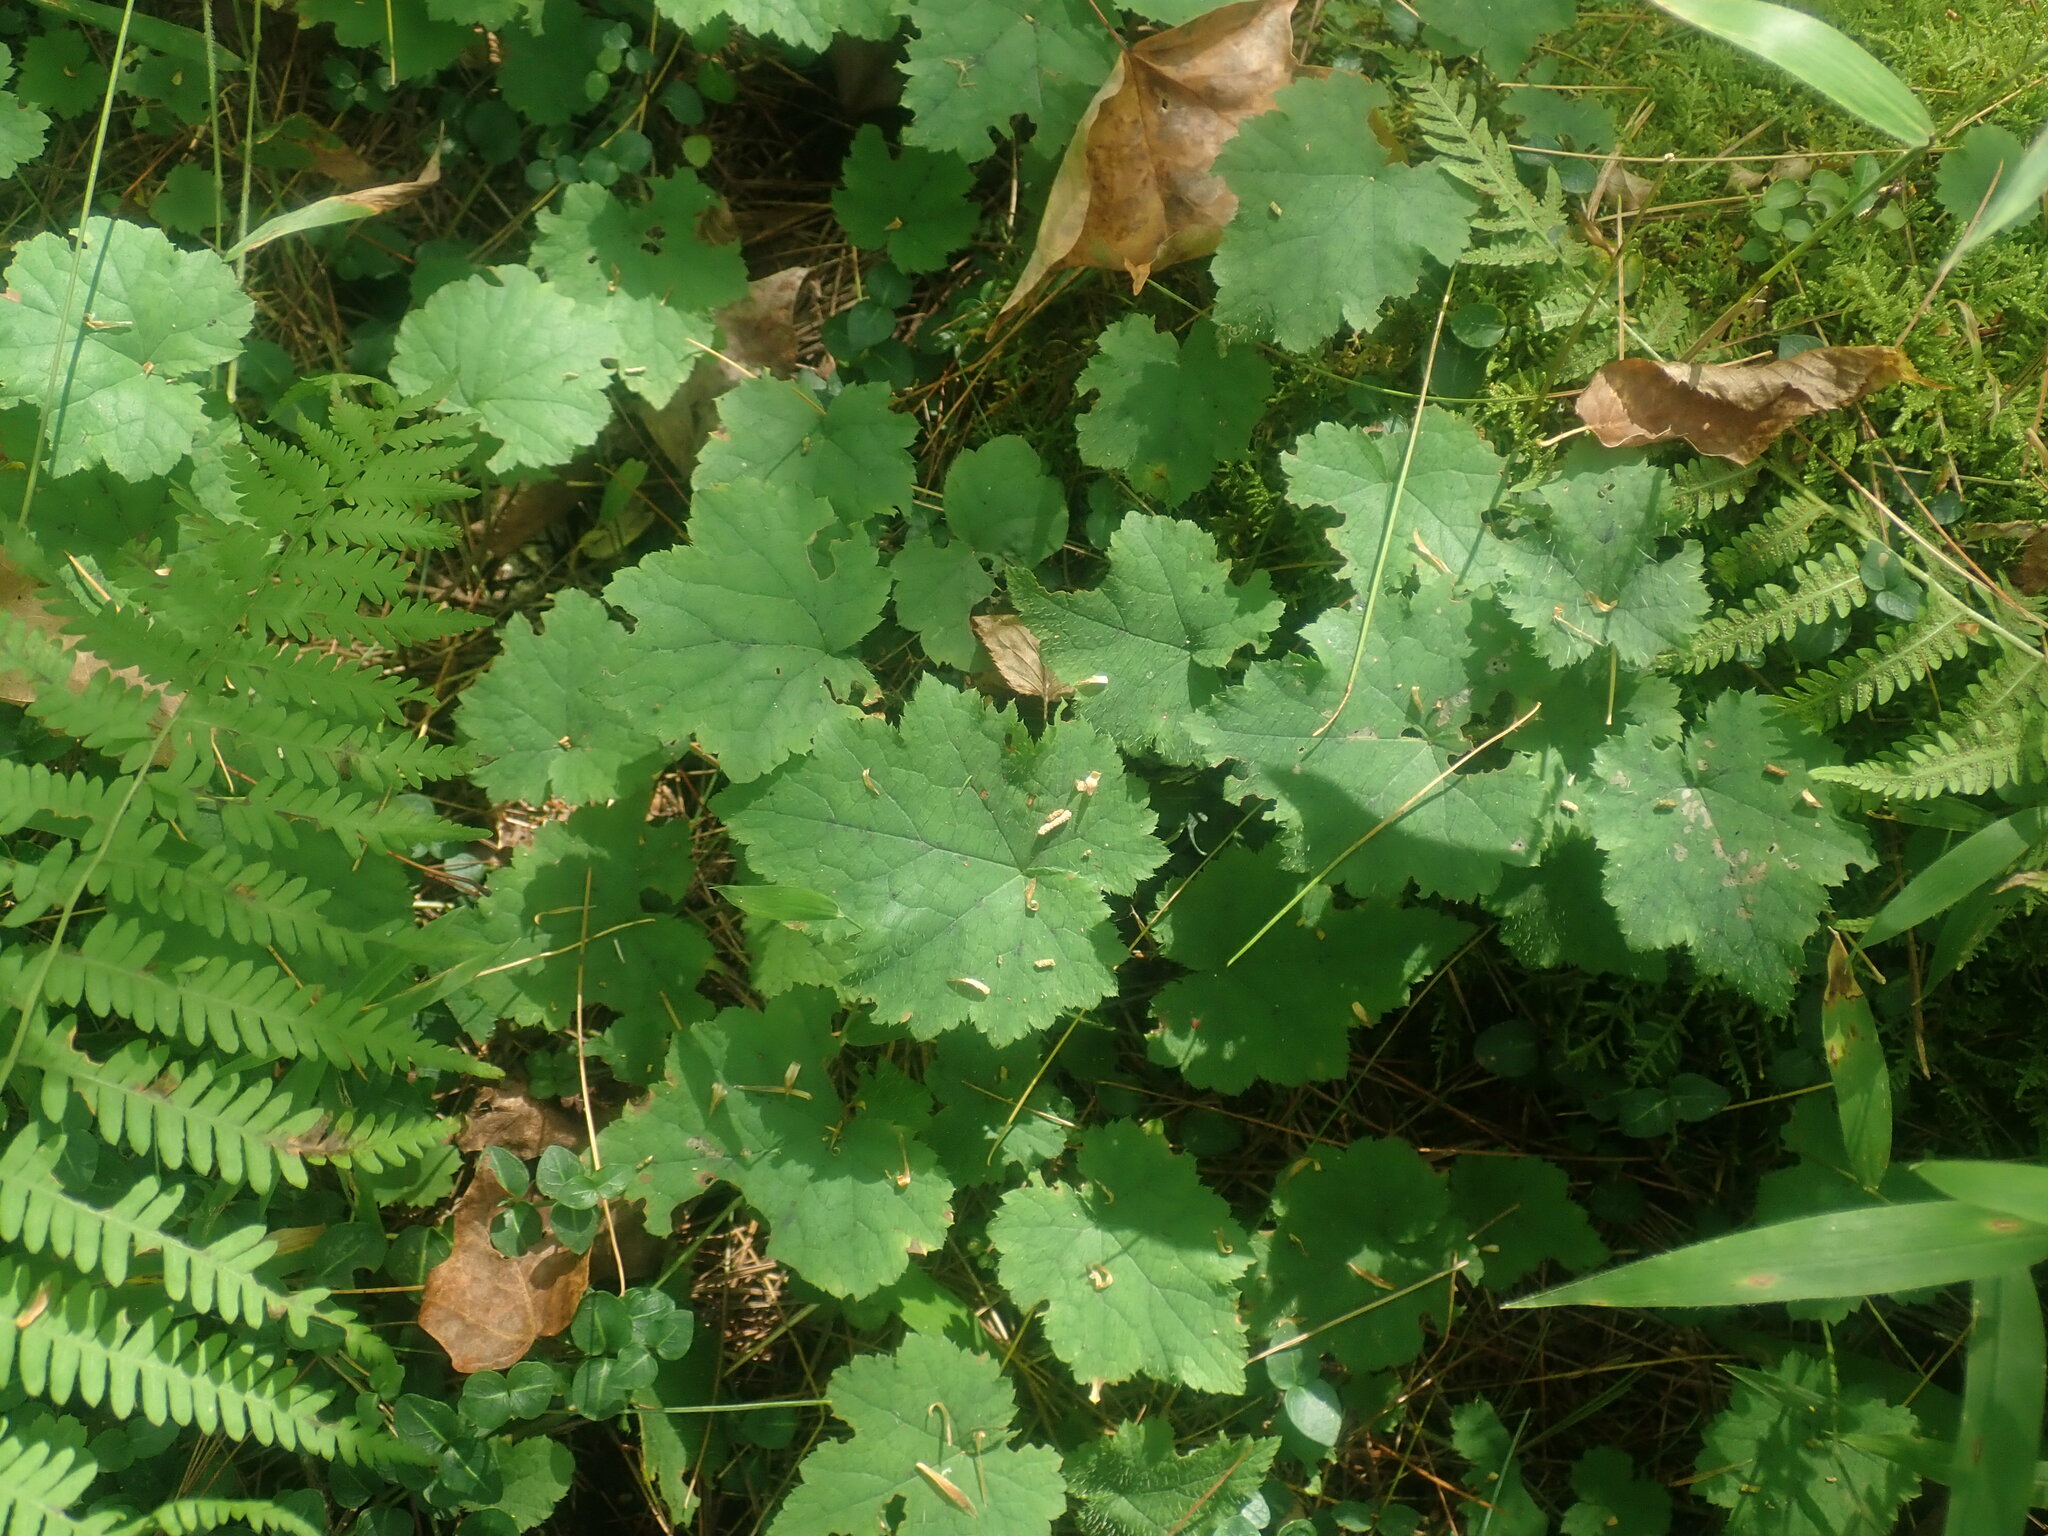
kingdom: Plantae
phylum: Tracheophyta
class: Magnoliopsida
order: Saxifragales
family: Saxifragaceae
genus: Tiarella
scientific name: Tiarella stolonifera
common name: Stoloniferous foamflower
